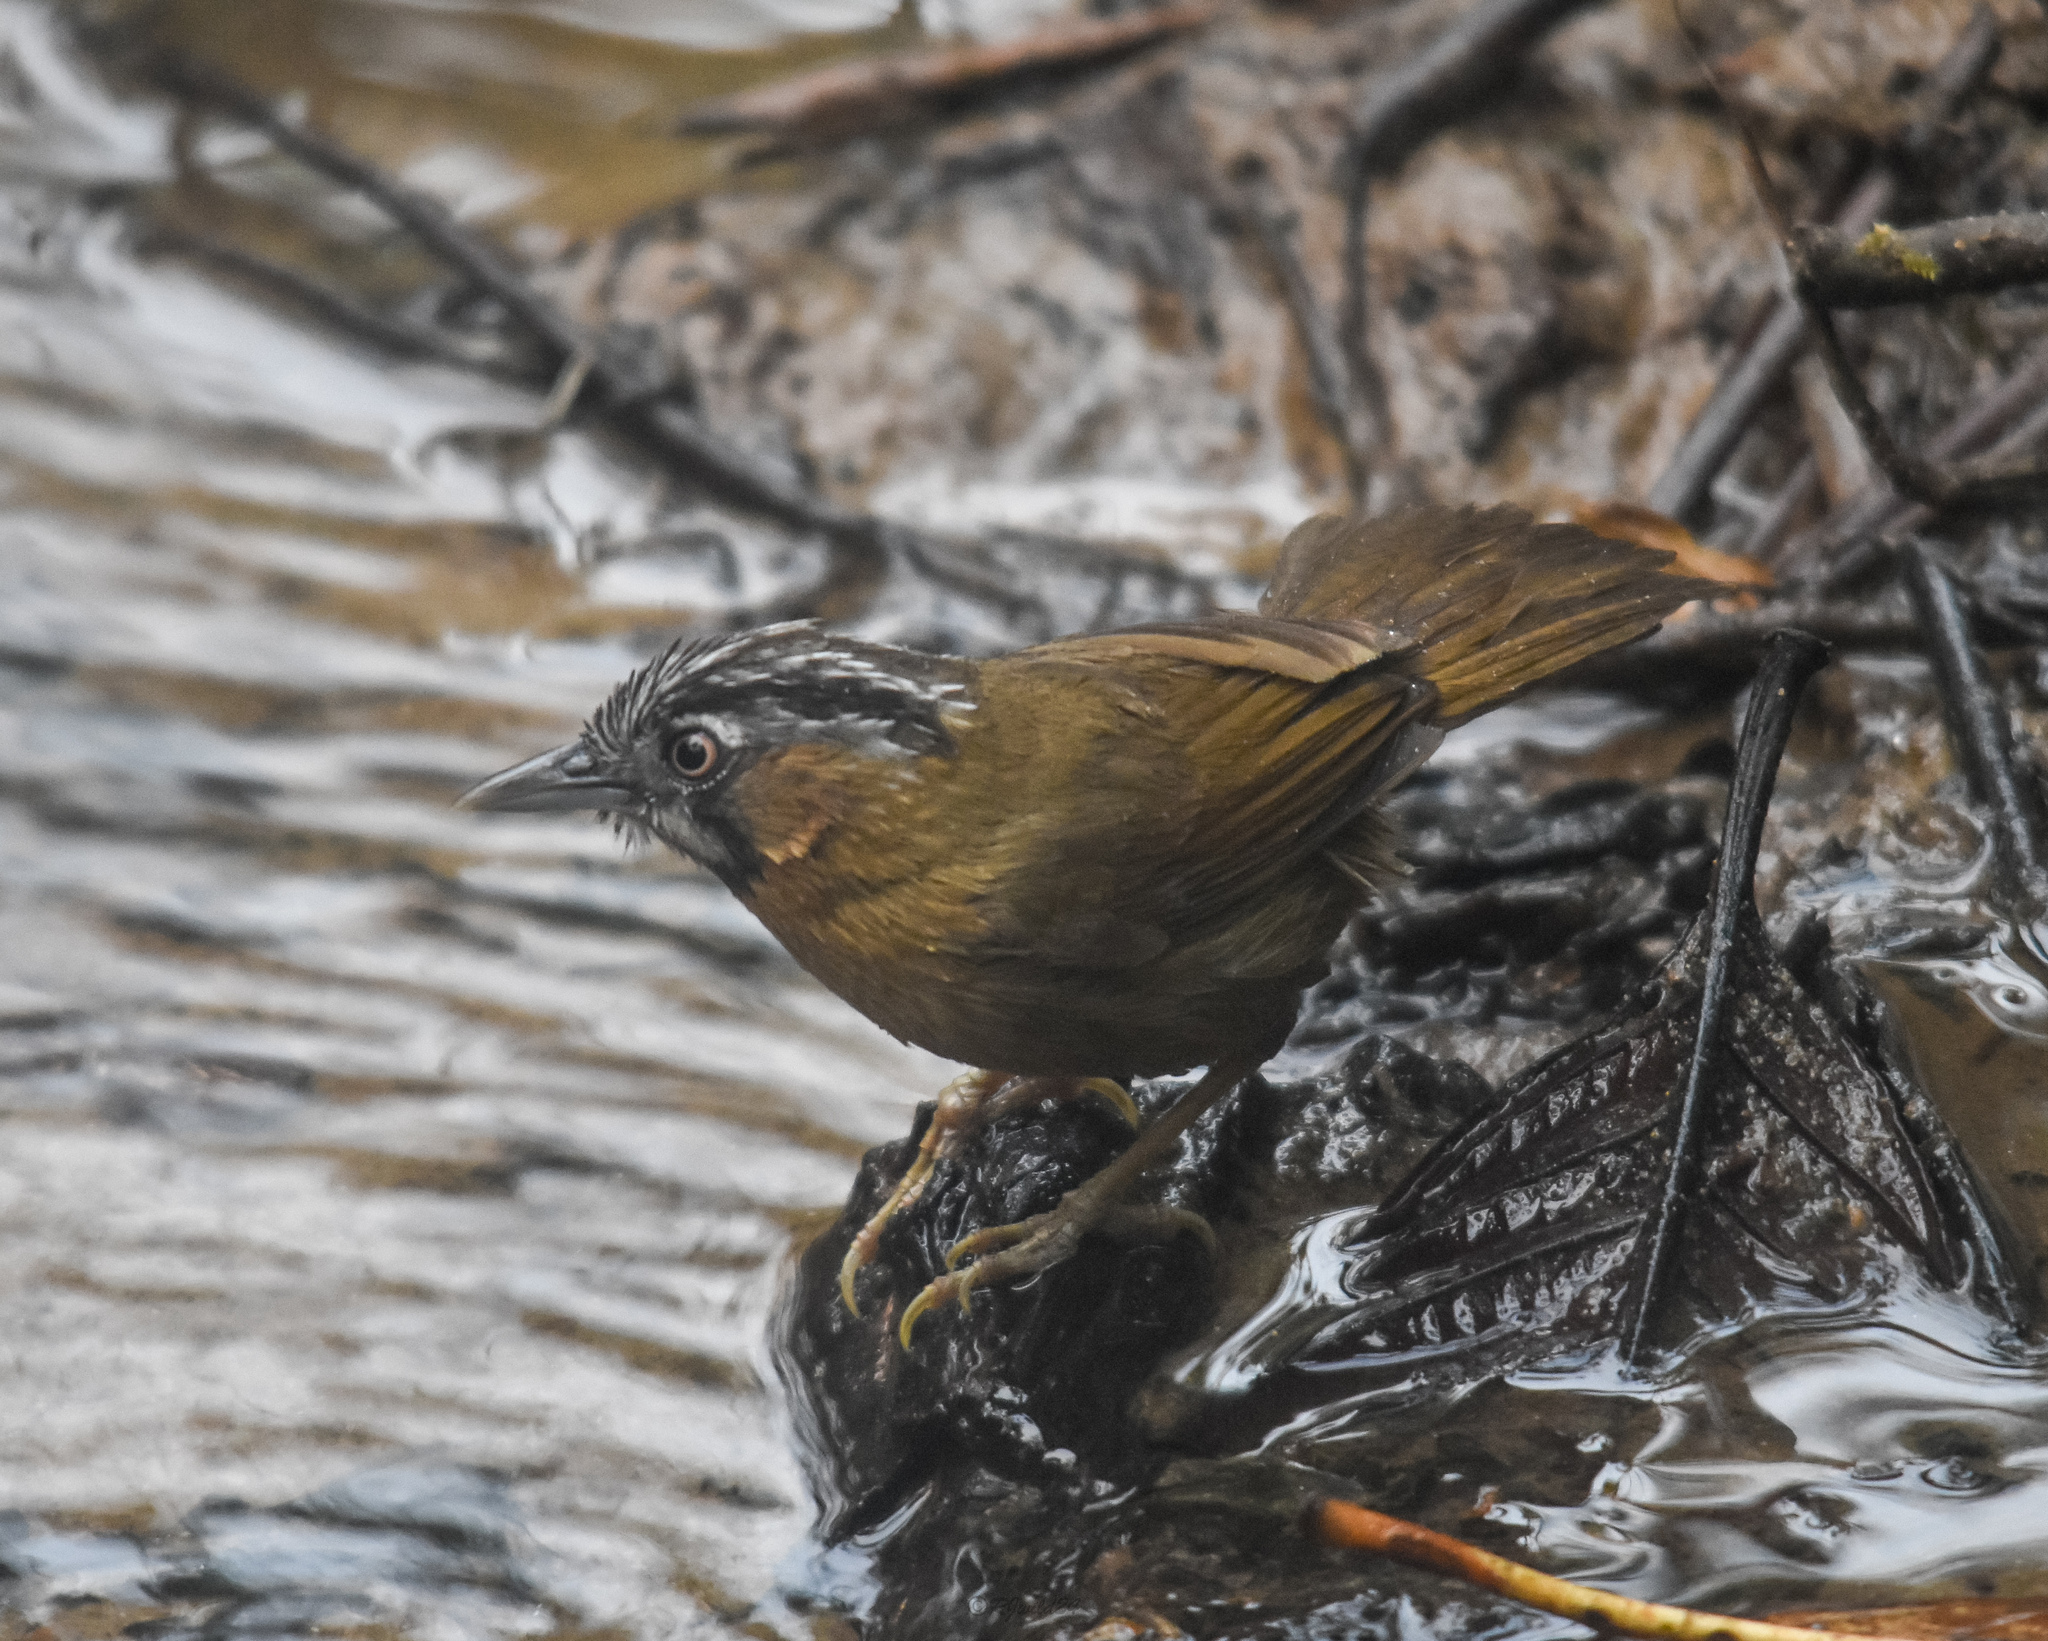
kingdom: Animalia
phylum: Chordata
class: Aves
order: Passeriformes
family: Timaliidae
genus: Stachyris
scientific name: Stachyris nigriceps
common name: Grey-throated babbler
